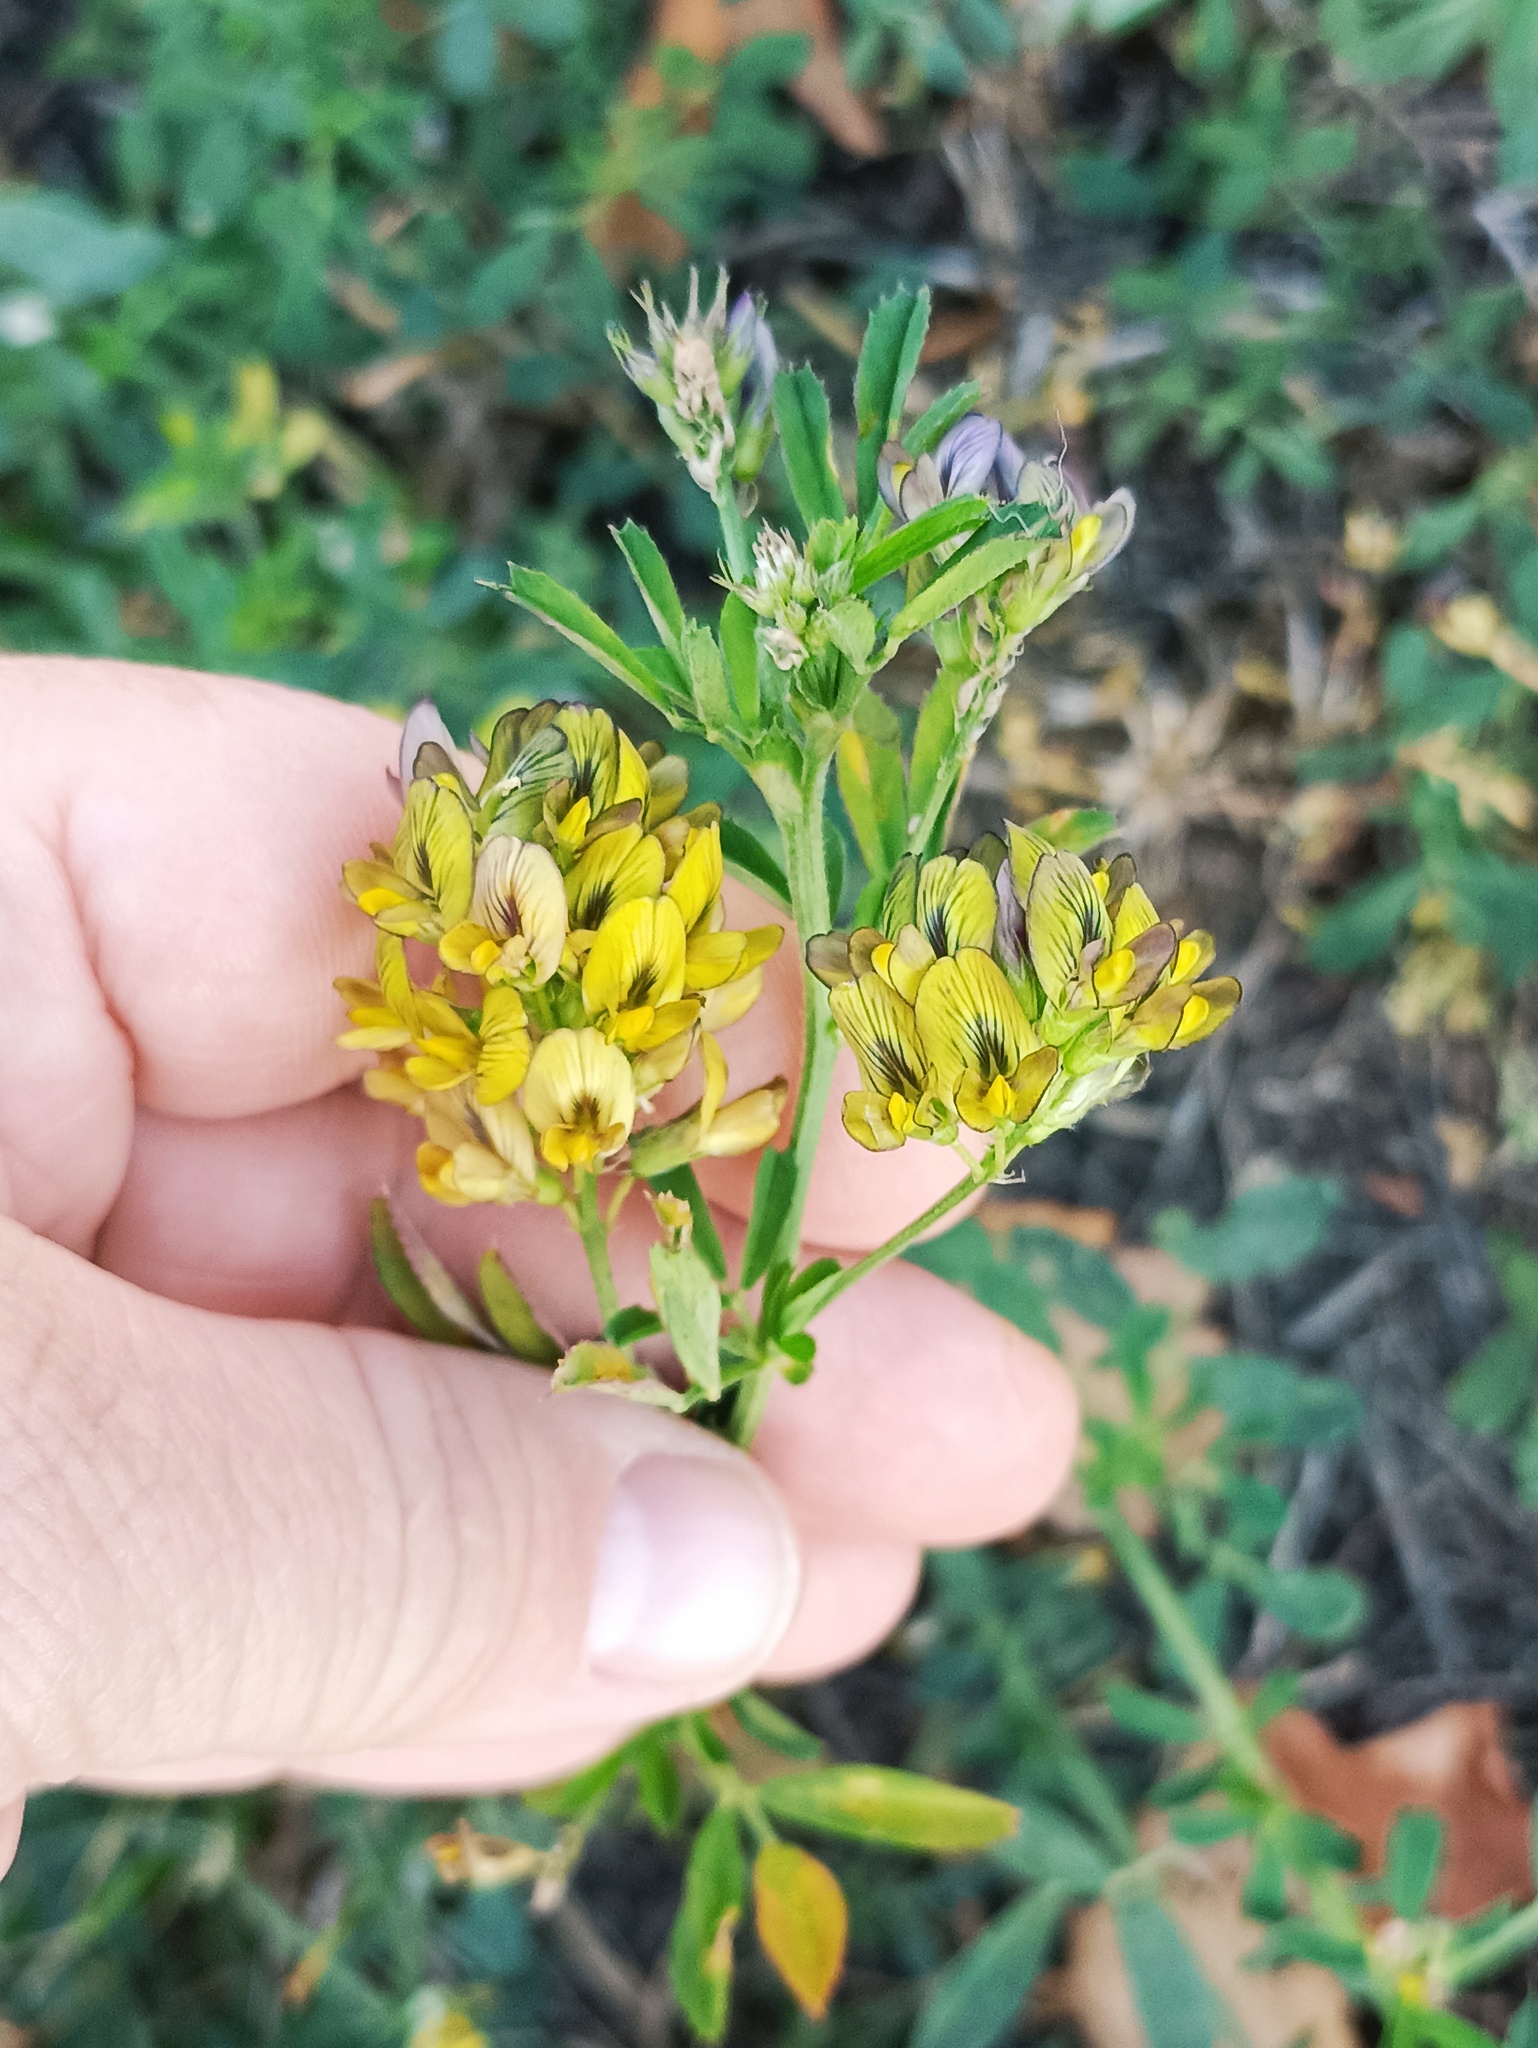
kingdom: Plantae
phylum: Tracheophyta
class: Magnoliopsida
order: Fabales
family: Fabaceae
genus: Medicago
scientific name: Medicago varia
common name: Sand lucerne
